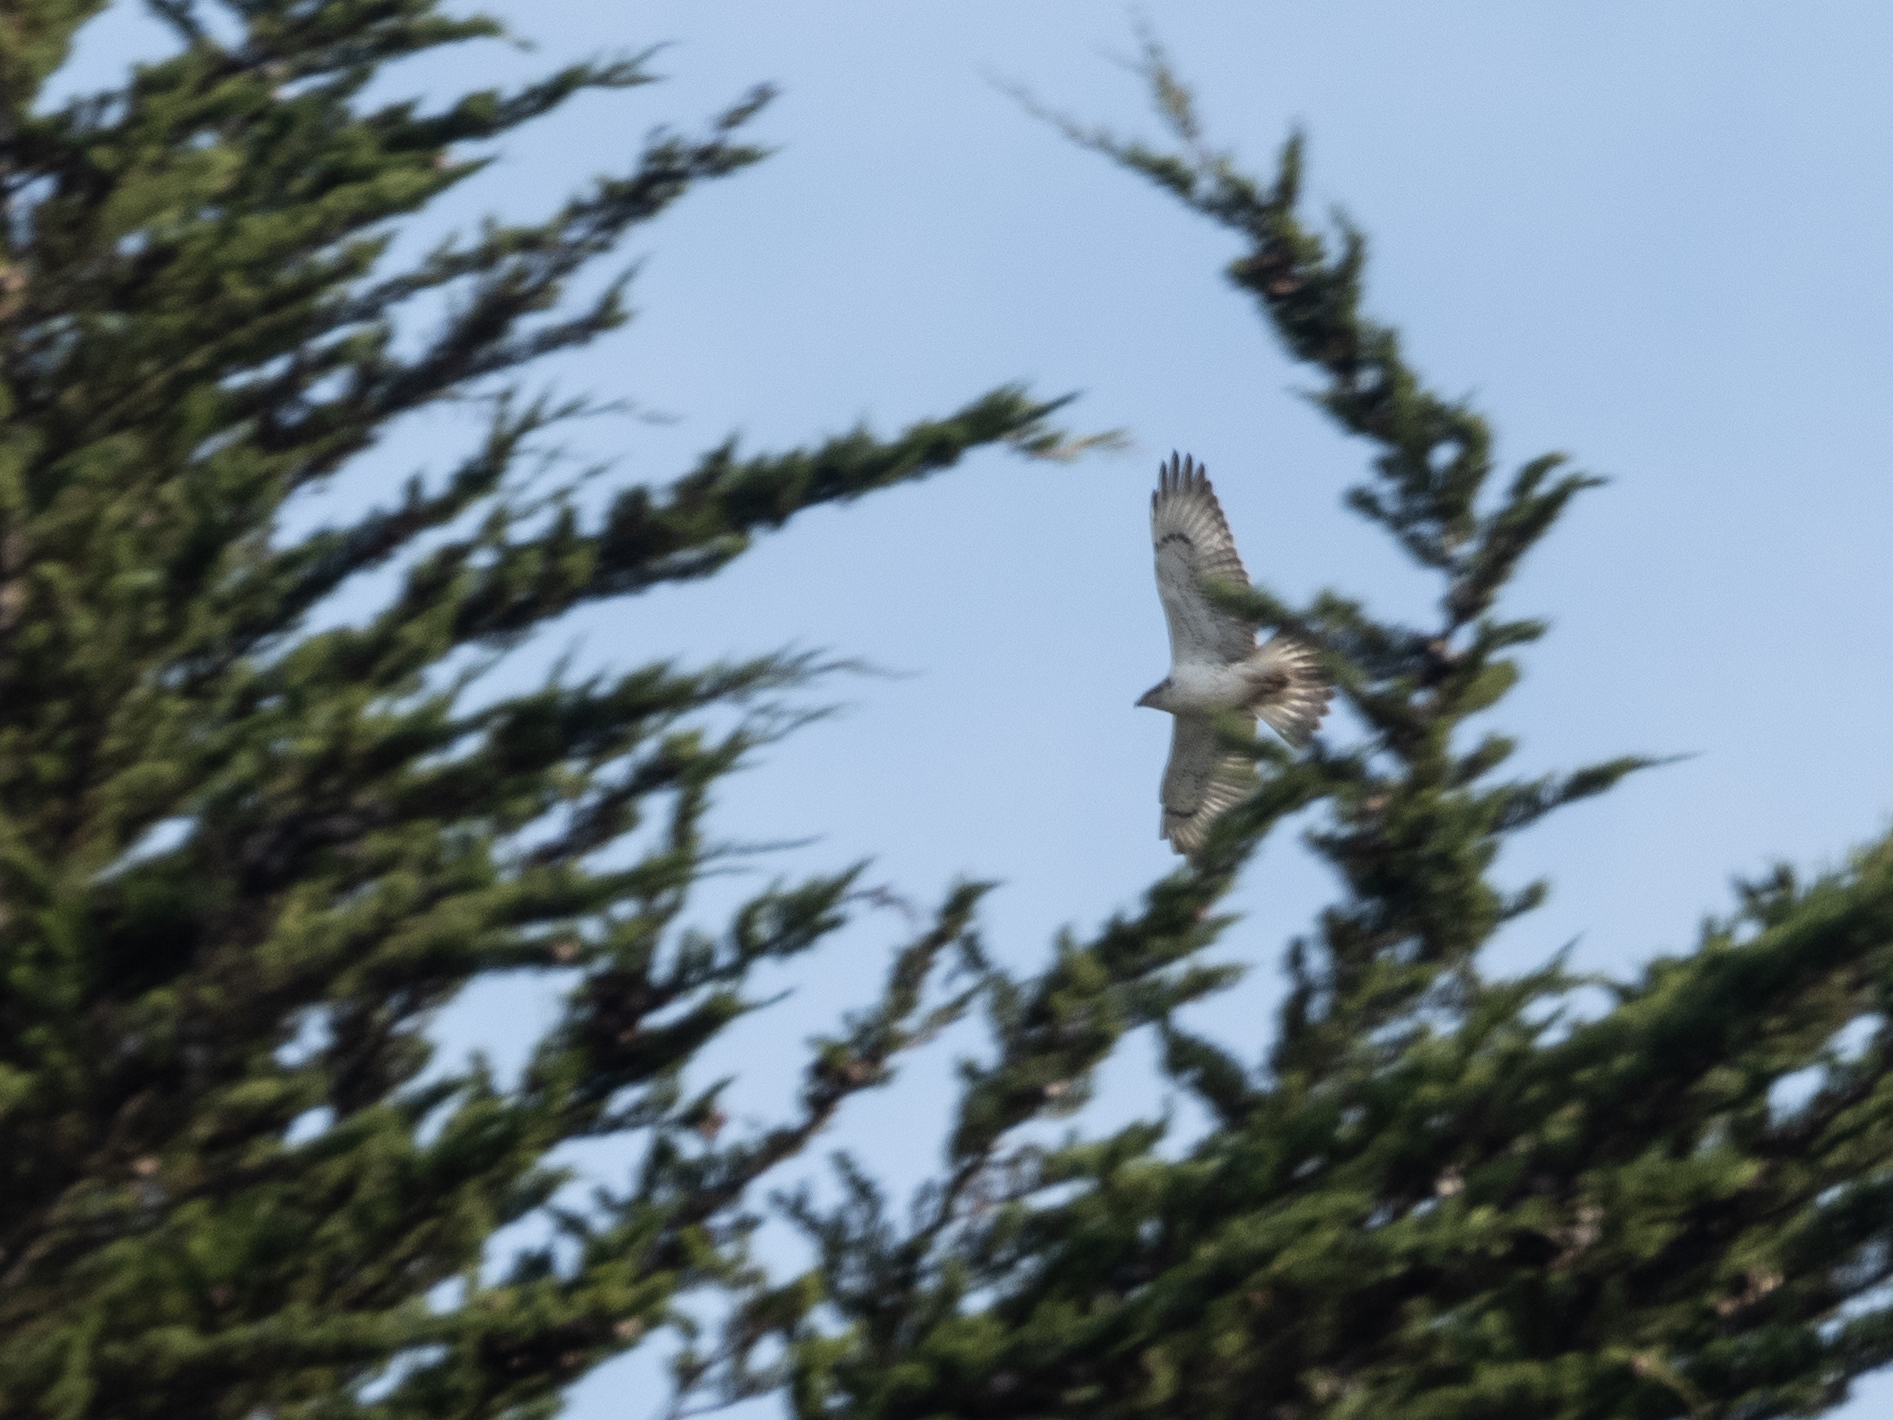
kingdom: Animalia
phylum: Chordata
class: Aves
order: Accipitriformes
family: Accipitridae
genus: Buteo
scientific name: Buteo regalis
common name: Ferruginous hawk
